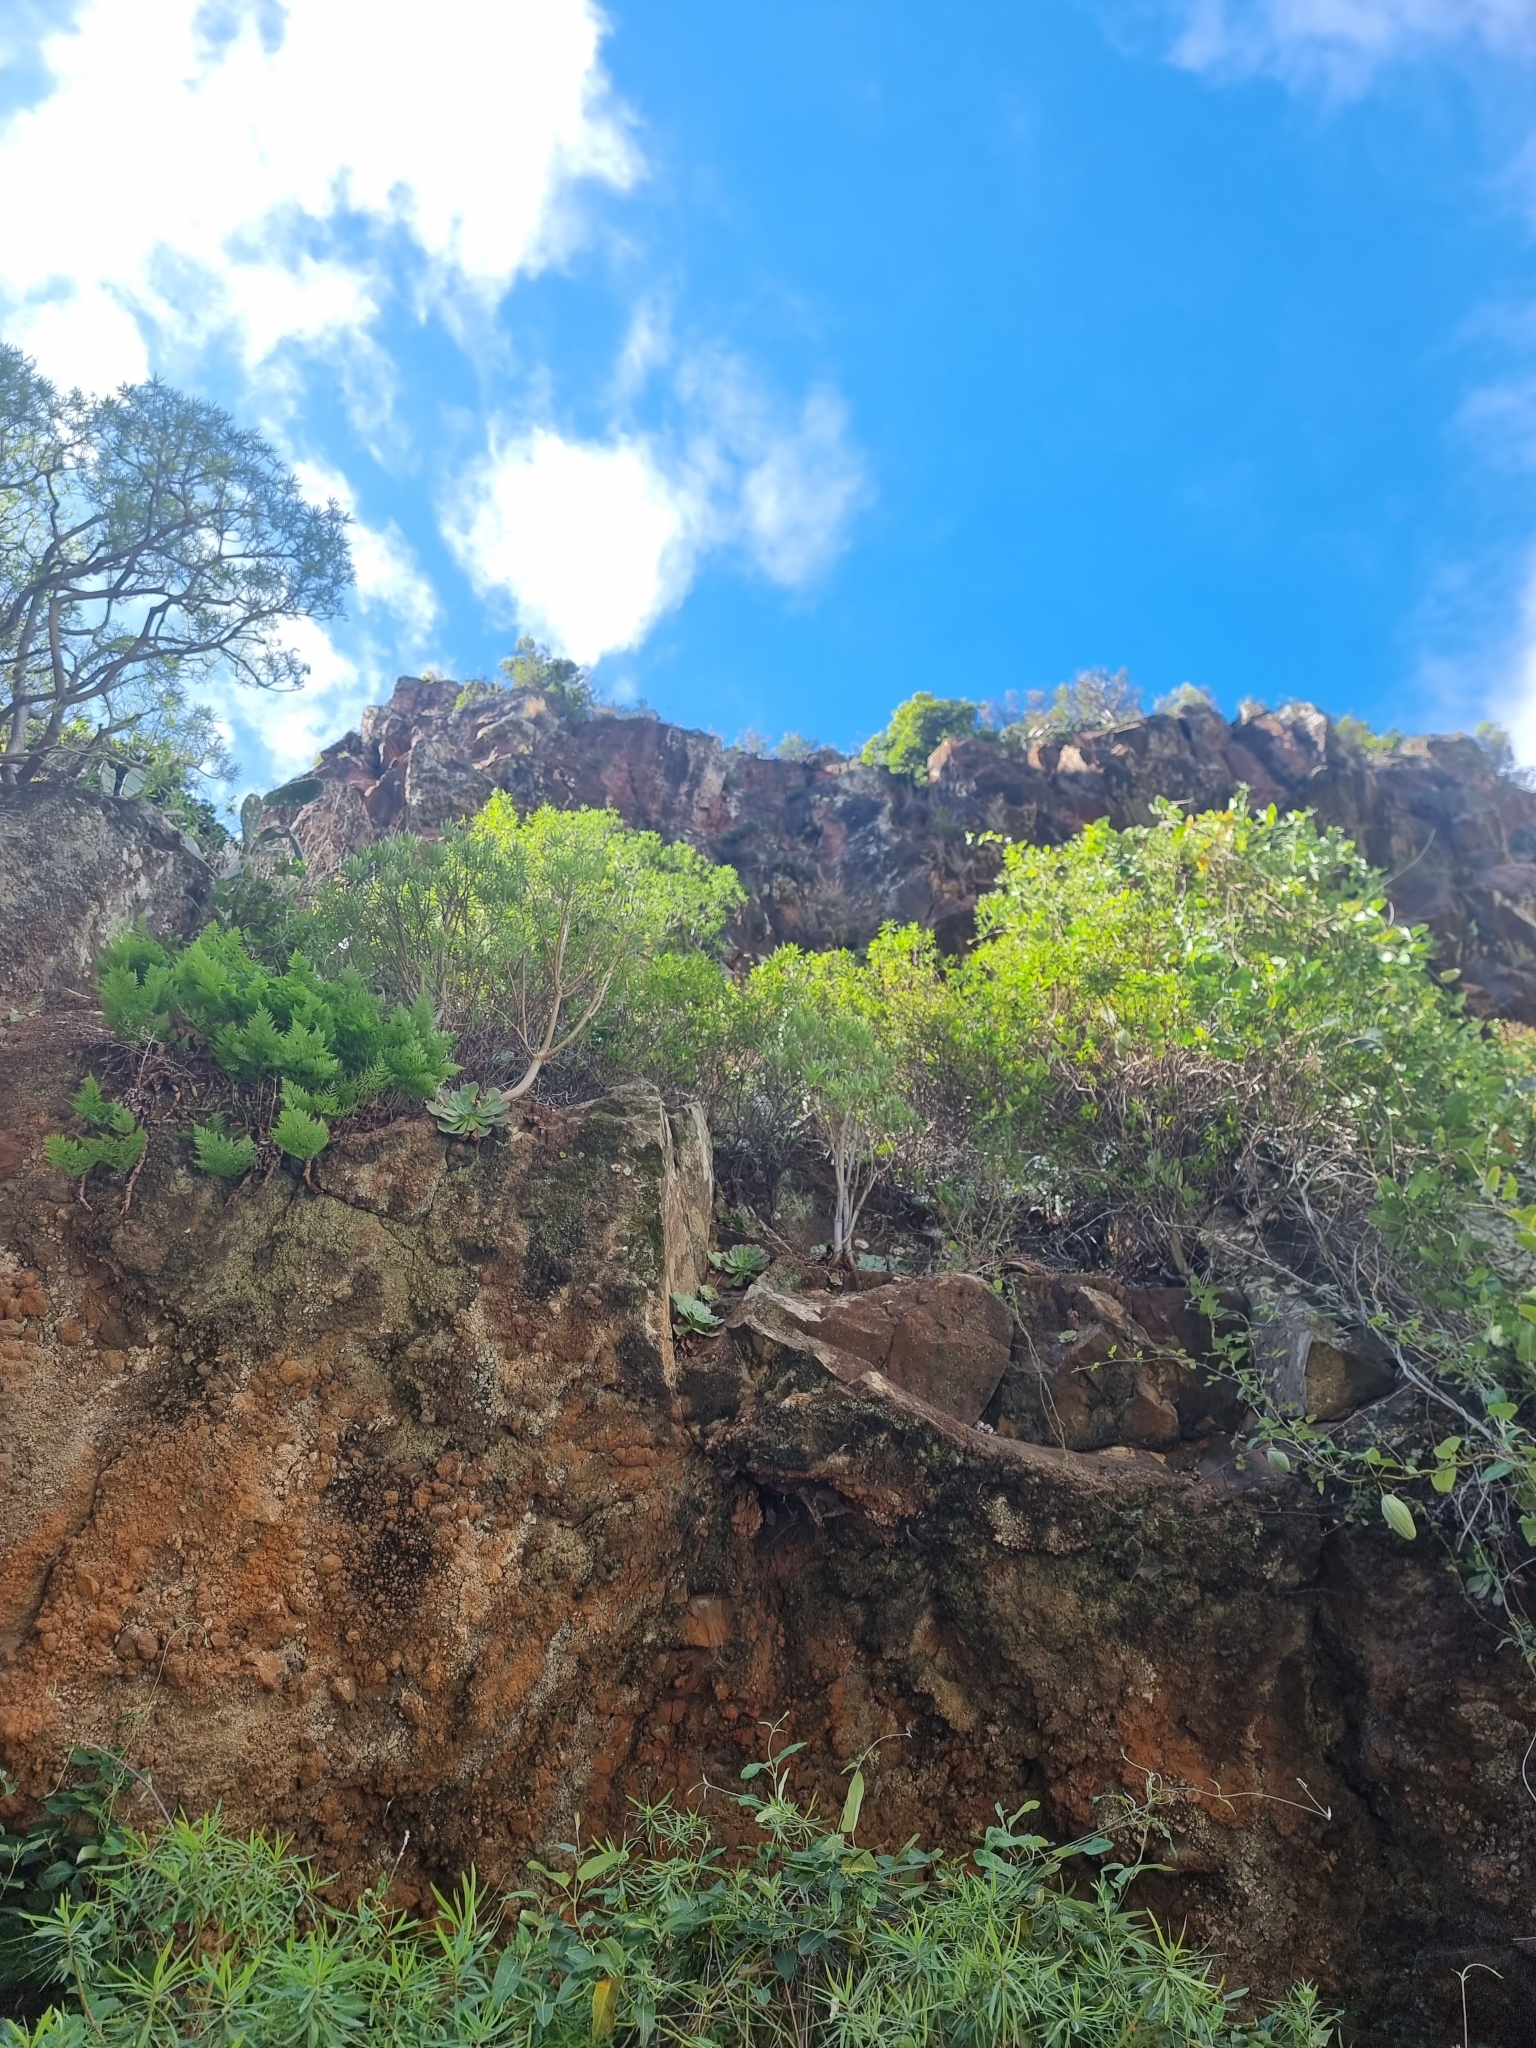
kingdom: Plantae
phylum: Tracheophyta
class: Magnoliopsida
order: Malpighiales
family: Euphorbiaceae
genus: Euphorbia
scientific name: Euphorbia piscatoria
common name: Fish-stunning spurge
